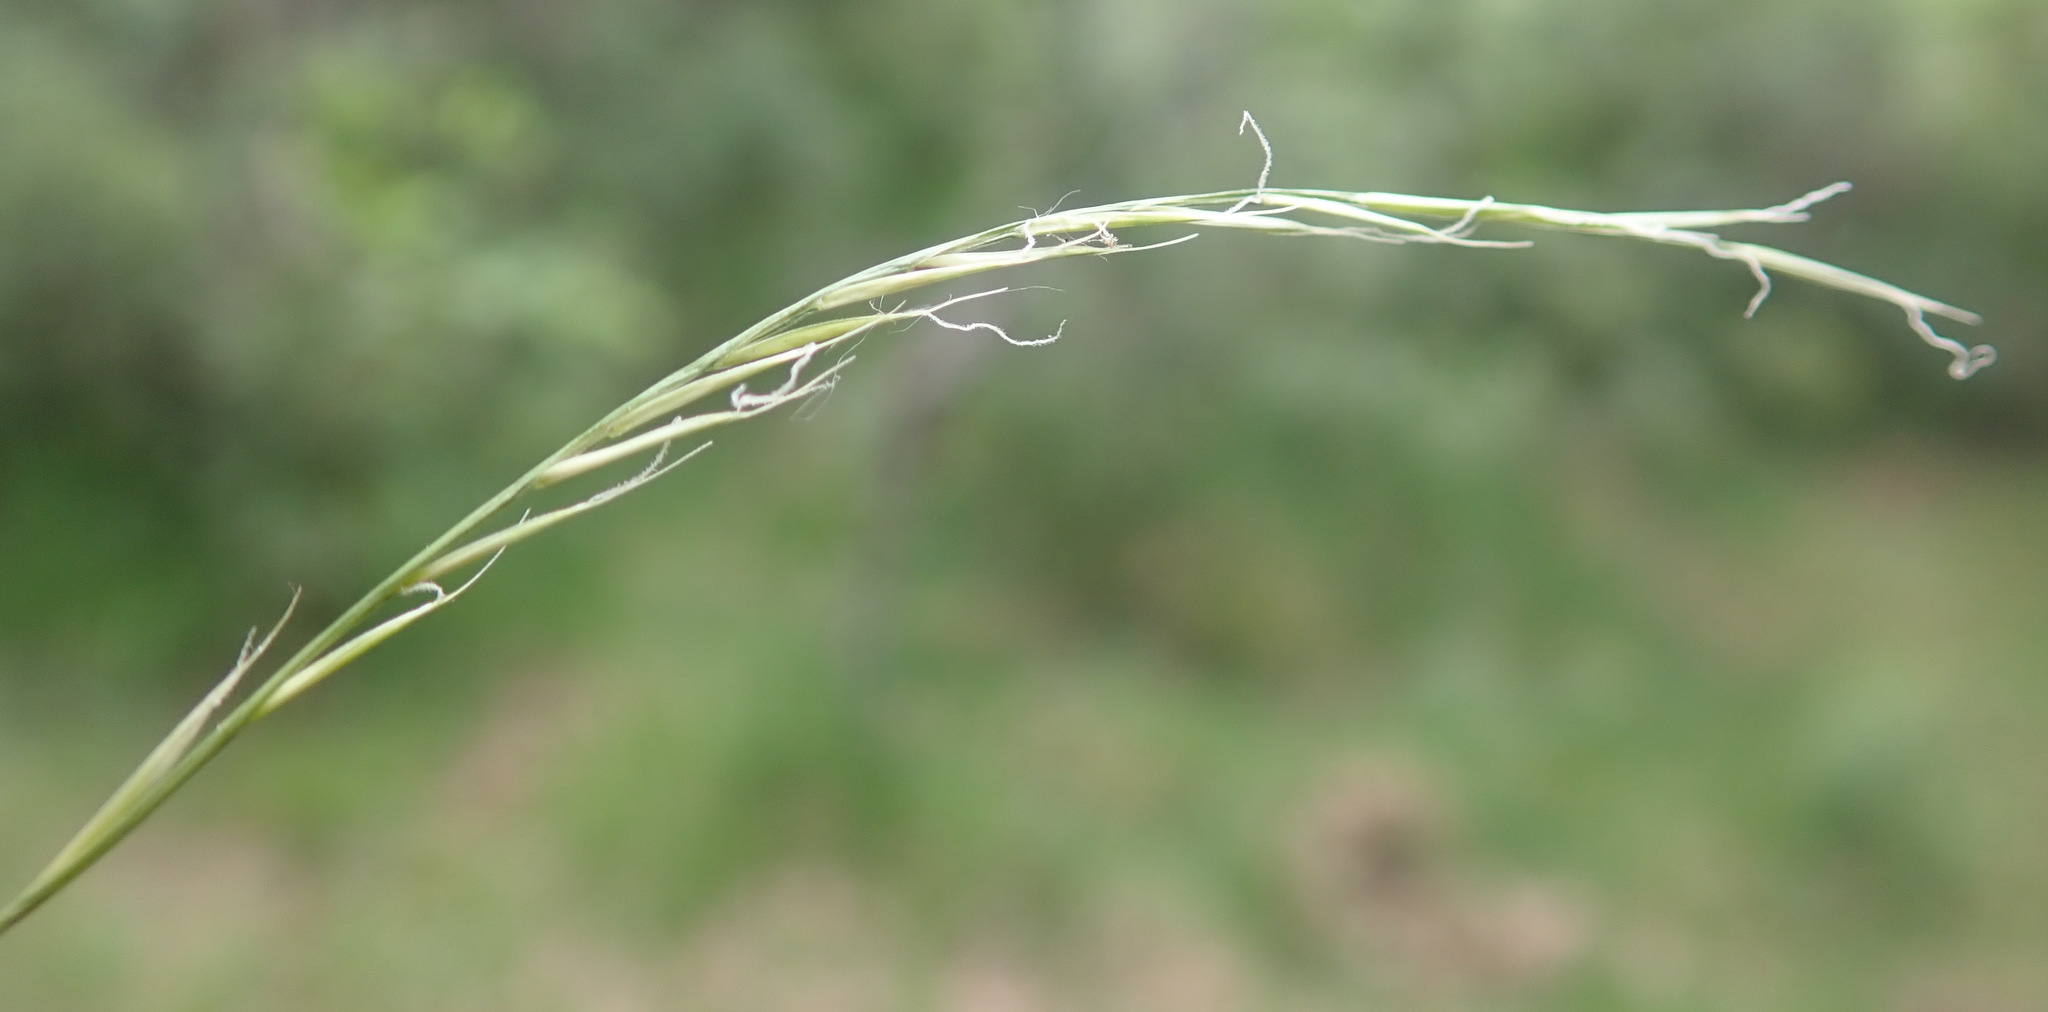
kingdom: Plantae
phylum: Tracheophyta
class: Liliopsida
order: Poales
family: Poaceae
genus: Nardus
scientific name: Nardus stricta
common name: Mat-grass
